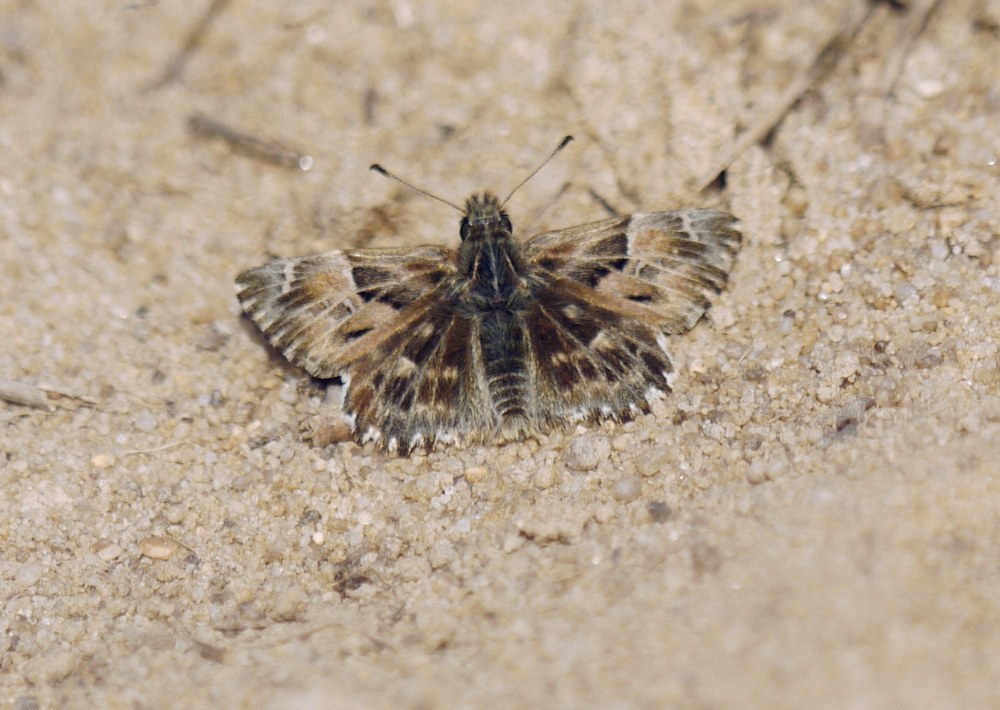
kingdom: Animalia
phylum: Arthropoda
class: Insecta
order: Lepidoptera
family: Hesperiidae
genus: Carcharodus
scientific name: Carcharodus alceae
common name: Mallow skipper
